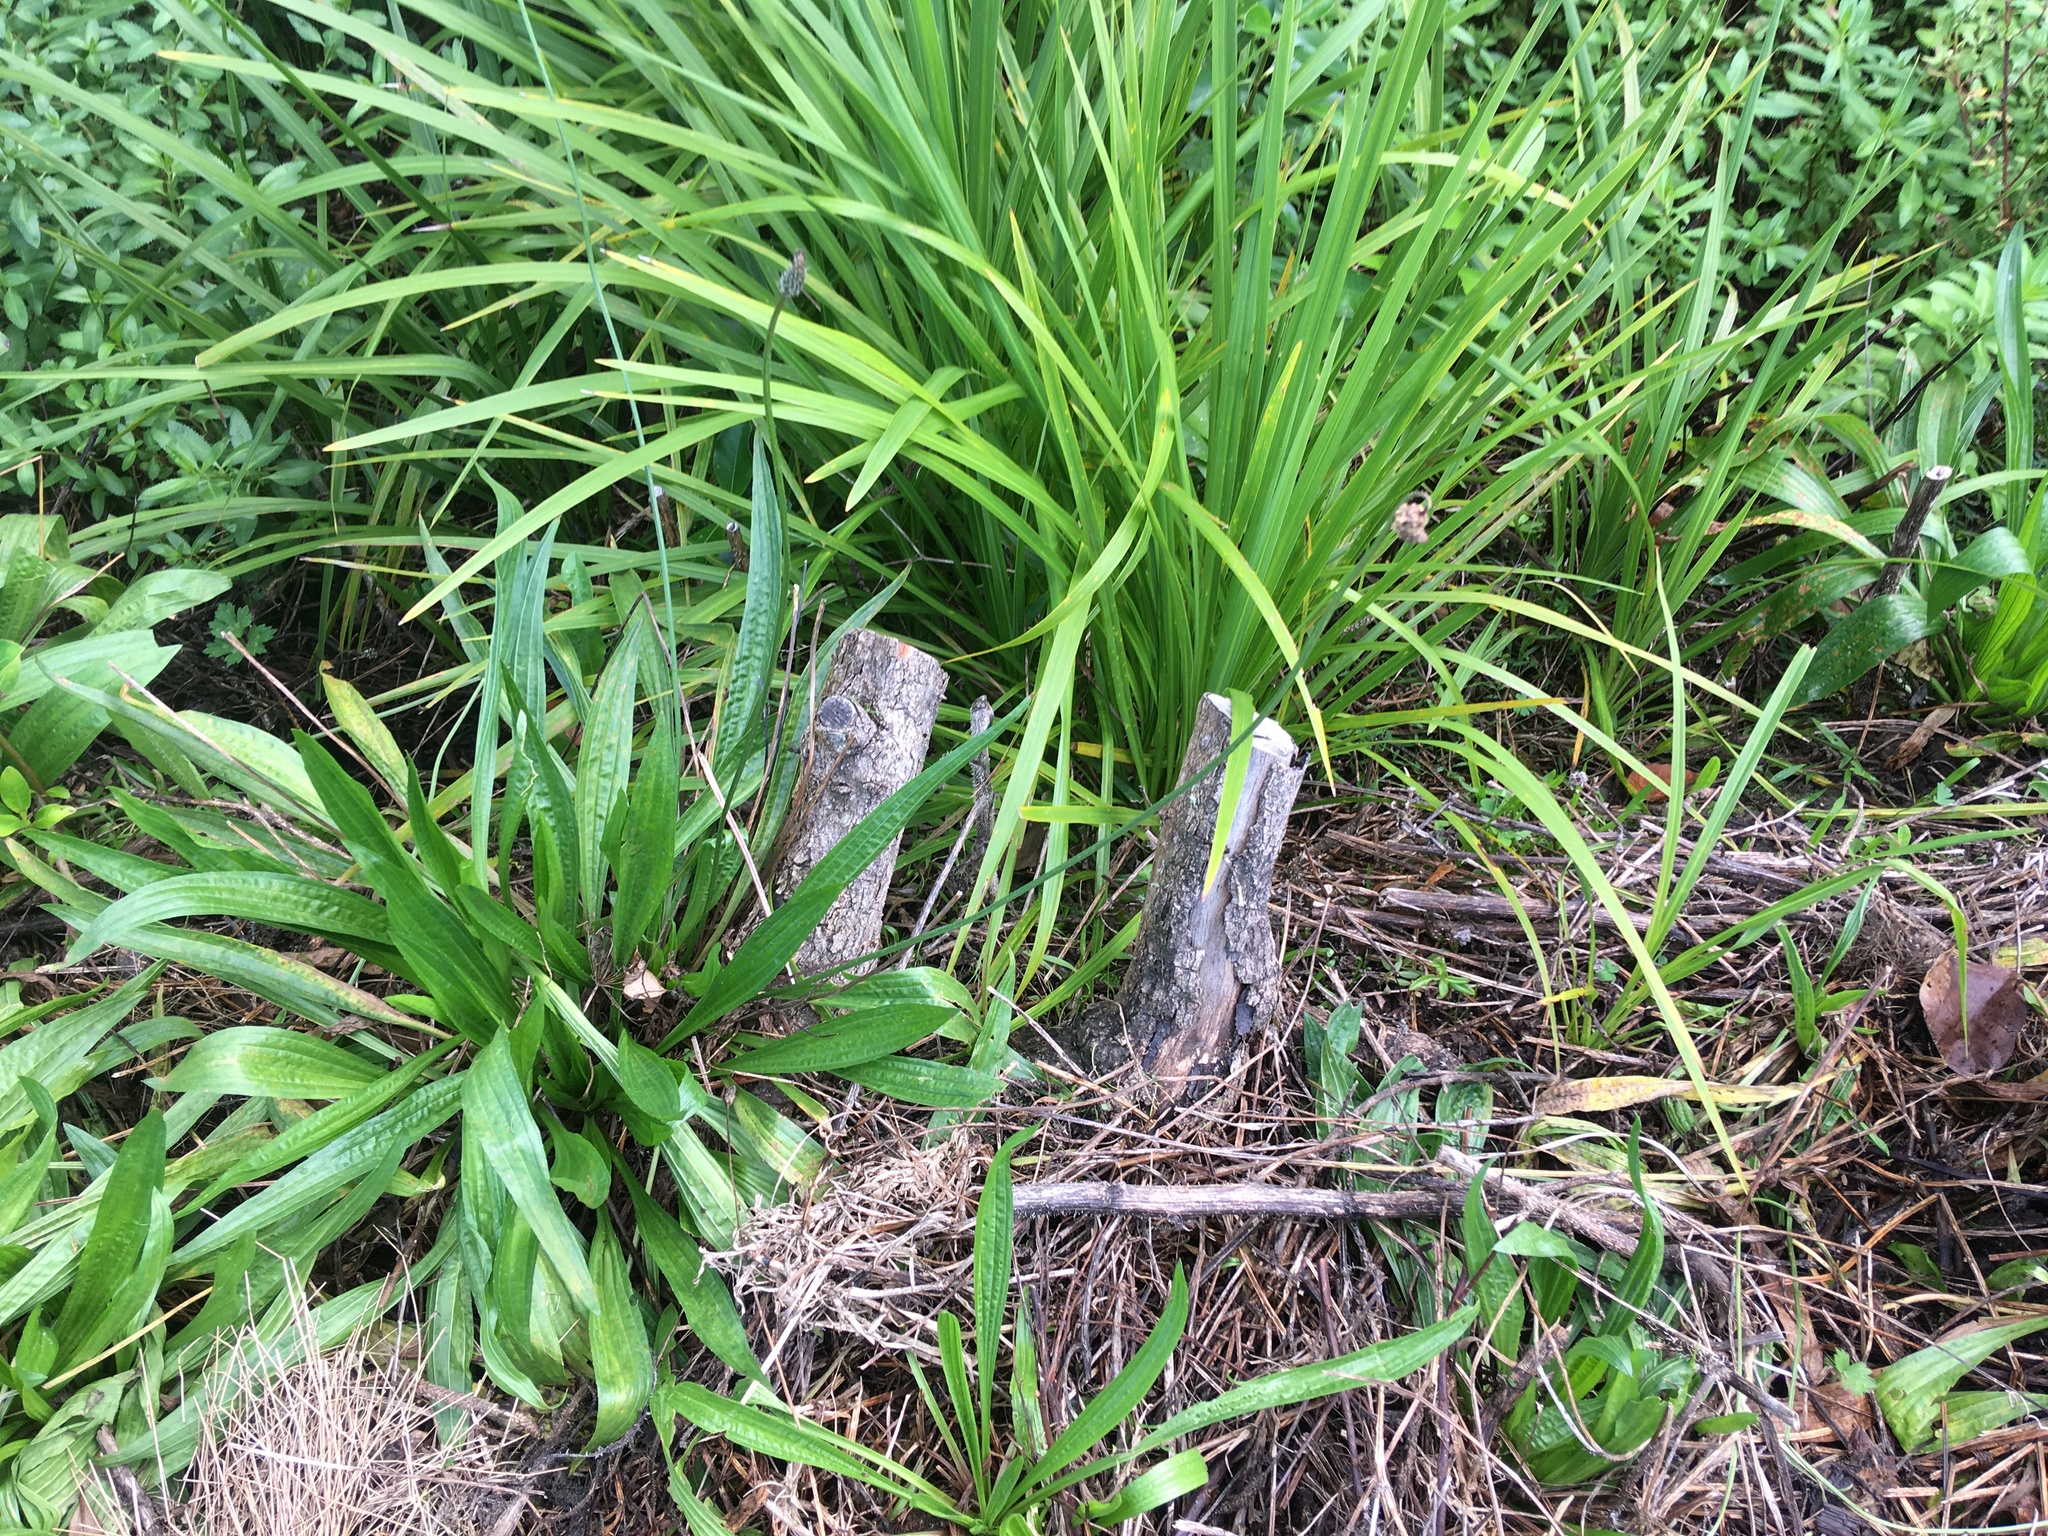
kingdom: Plantae
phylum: Tracheophyta
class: Magnoliopsida
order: Gentianales
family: Rubiaceae
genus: Coprosma
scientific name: Coprosma robusta
